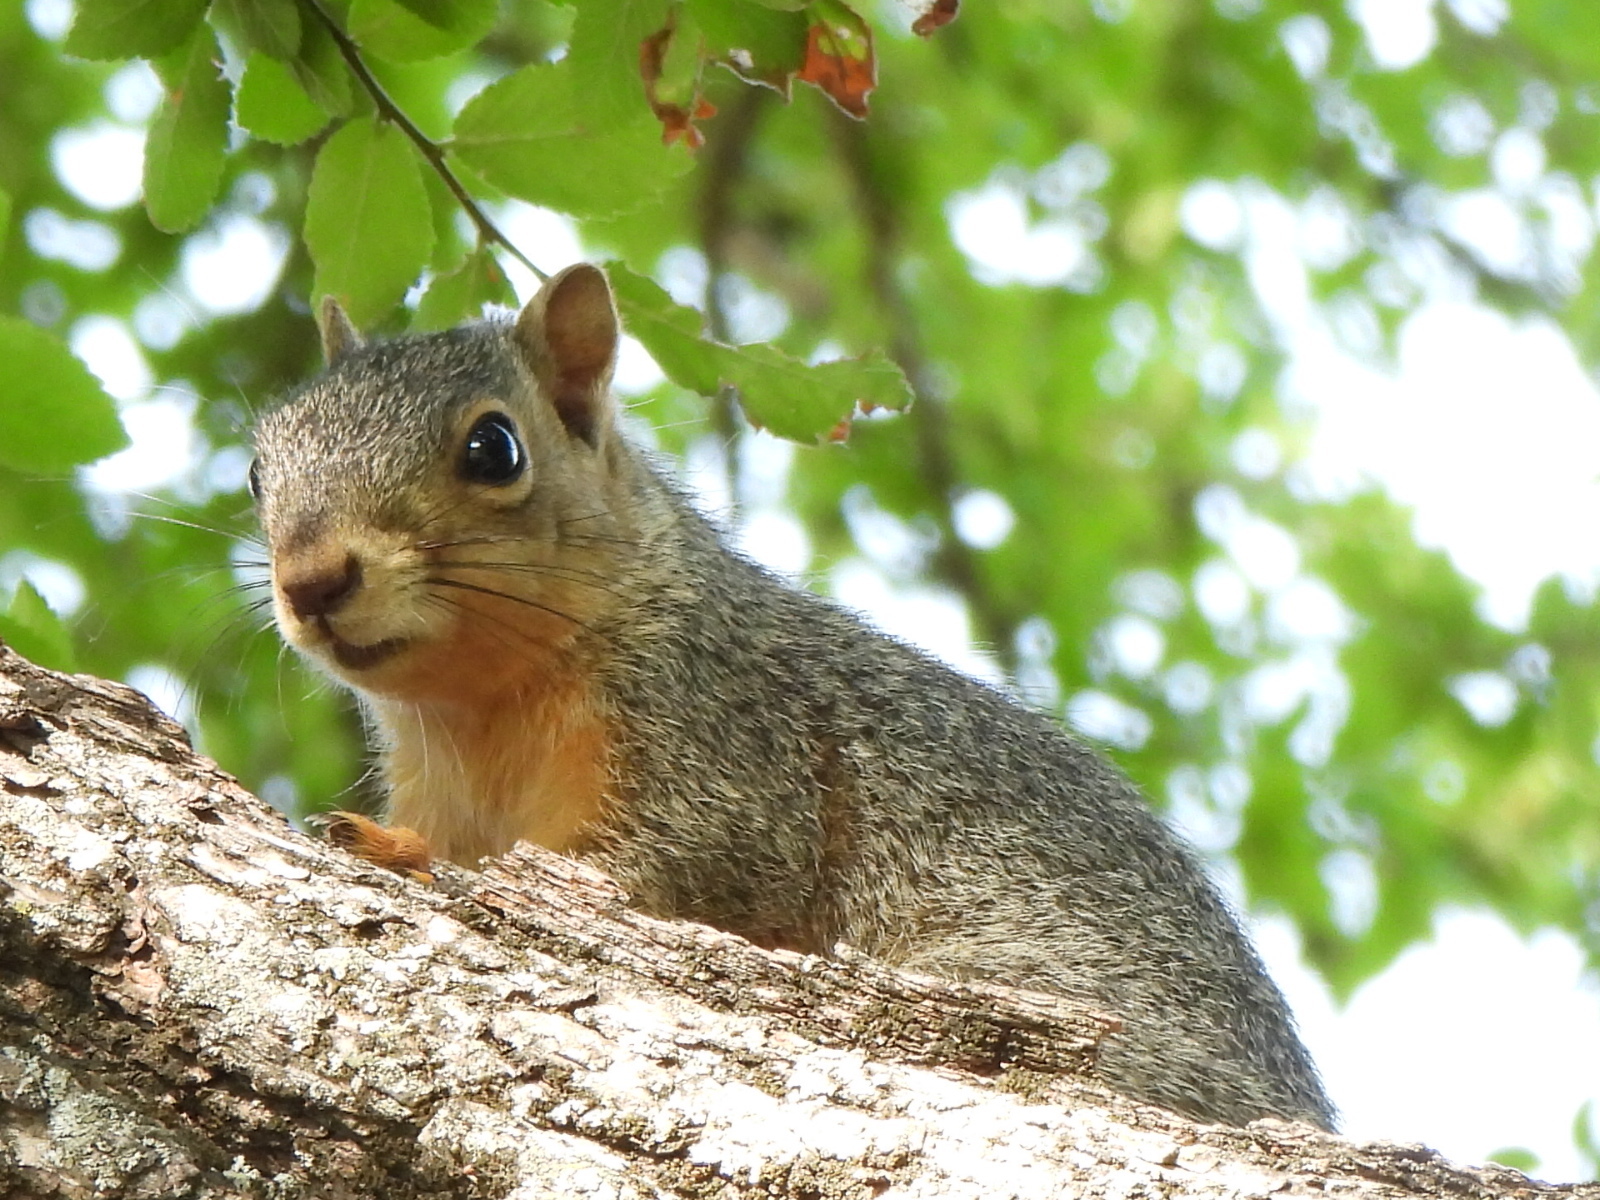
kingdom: Animalia
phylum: Chordata
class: Mammalia
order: Rodentia
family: Sciuridae
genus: Sciurus
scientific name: Sciurus niger
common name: Fox squirrel
